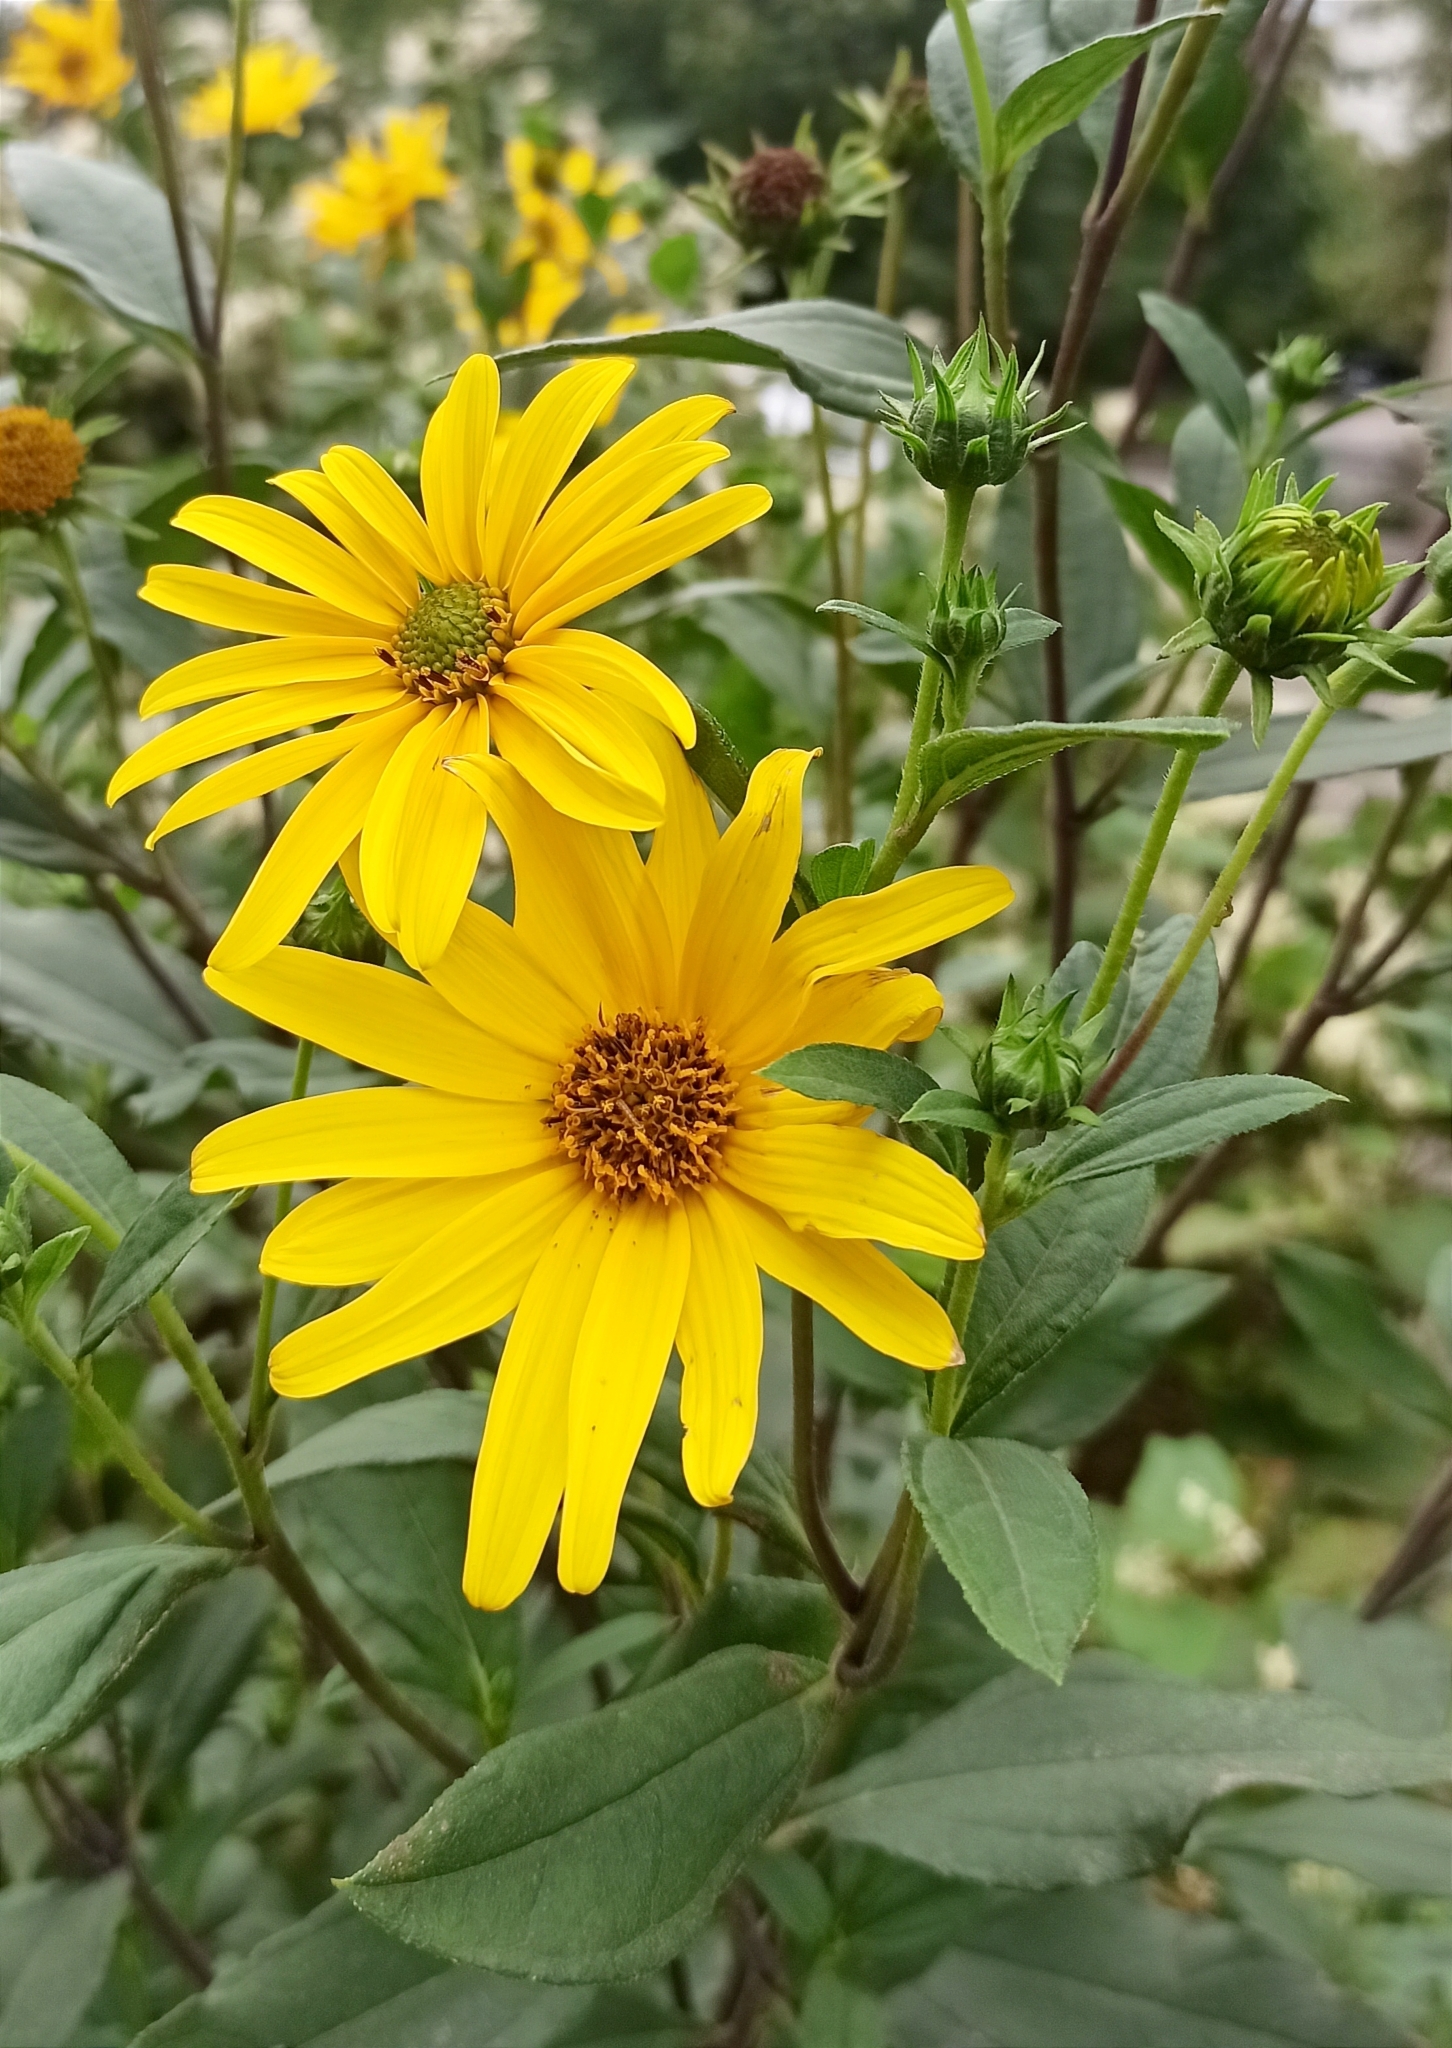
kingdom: Plantae
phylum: Tracheophyta
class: Magnoliopsida
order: Asterales
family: Asteraceae
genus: Helianthus
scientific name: Helianthus tuberosus
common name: Jerusalem artichoke
